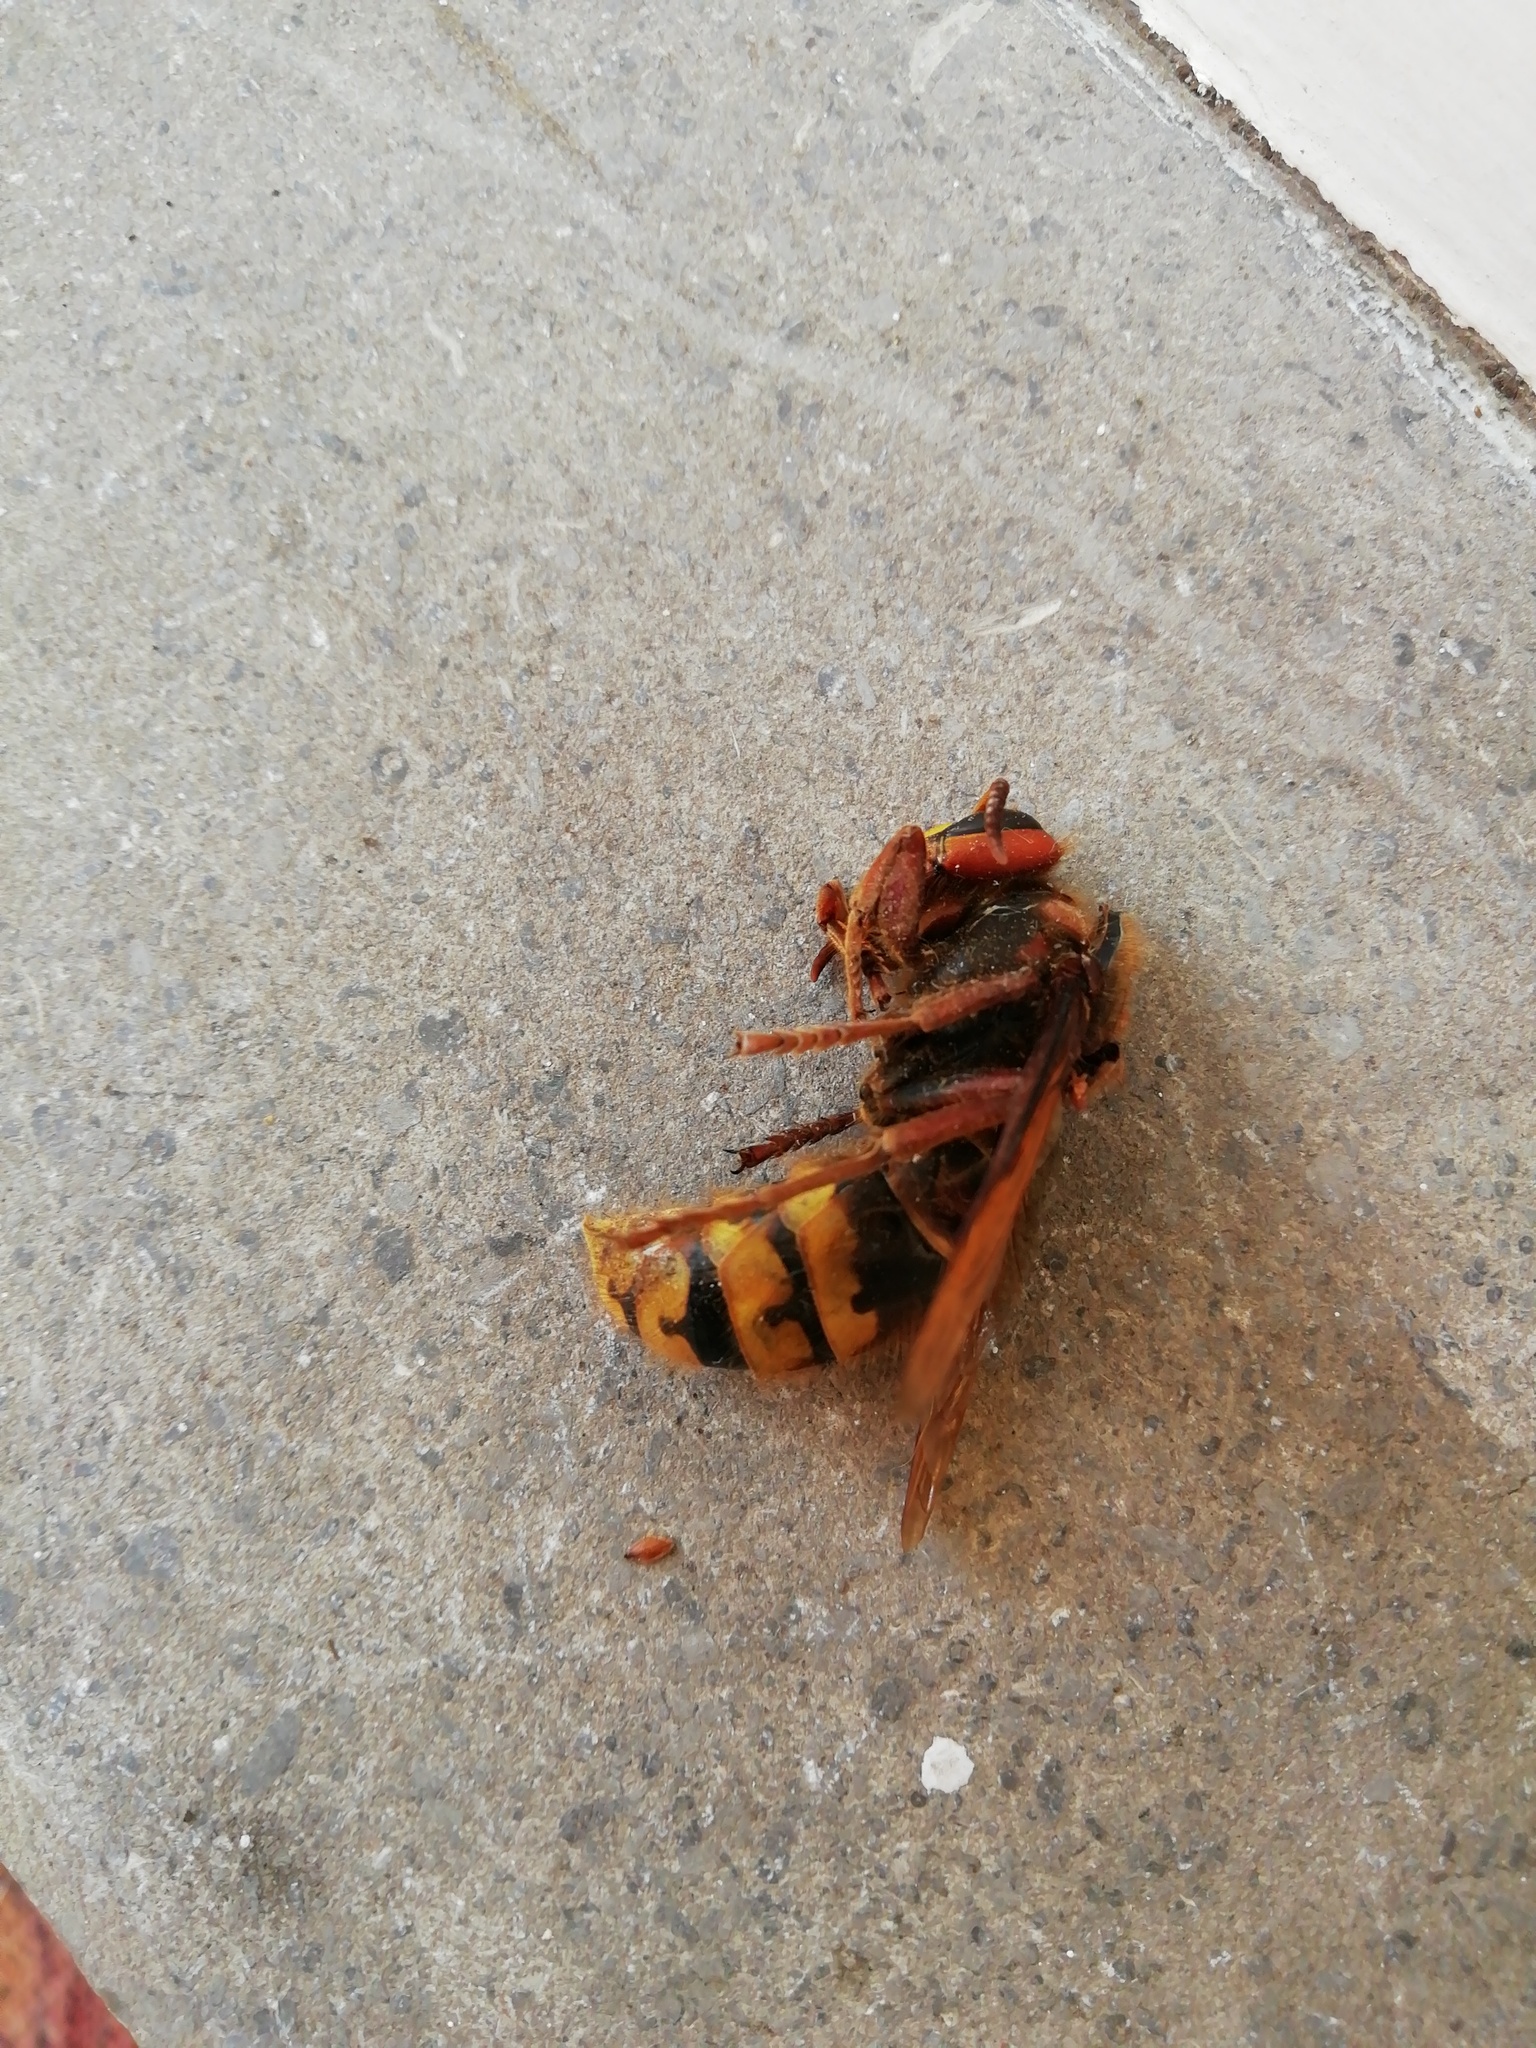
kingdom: Animalia
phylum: Arthropoda
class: Insecta
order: Hymenoptera
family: Vespidae
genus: Vespa
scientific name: Vespa crabro
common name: Hornet
